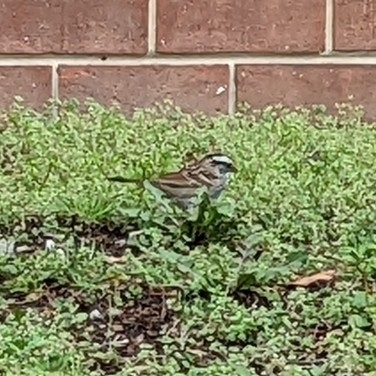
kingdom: Animalia
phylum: Chordata
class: Aves
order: Passeriformes
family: Passerellidae
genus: Zonotrichia
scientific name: Zonotrichia albicollis
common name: White-throated sparrow
